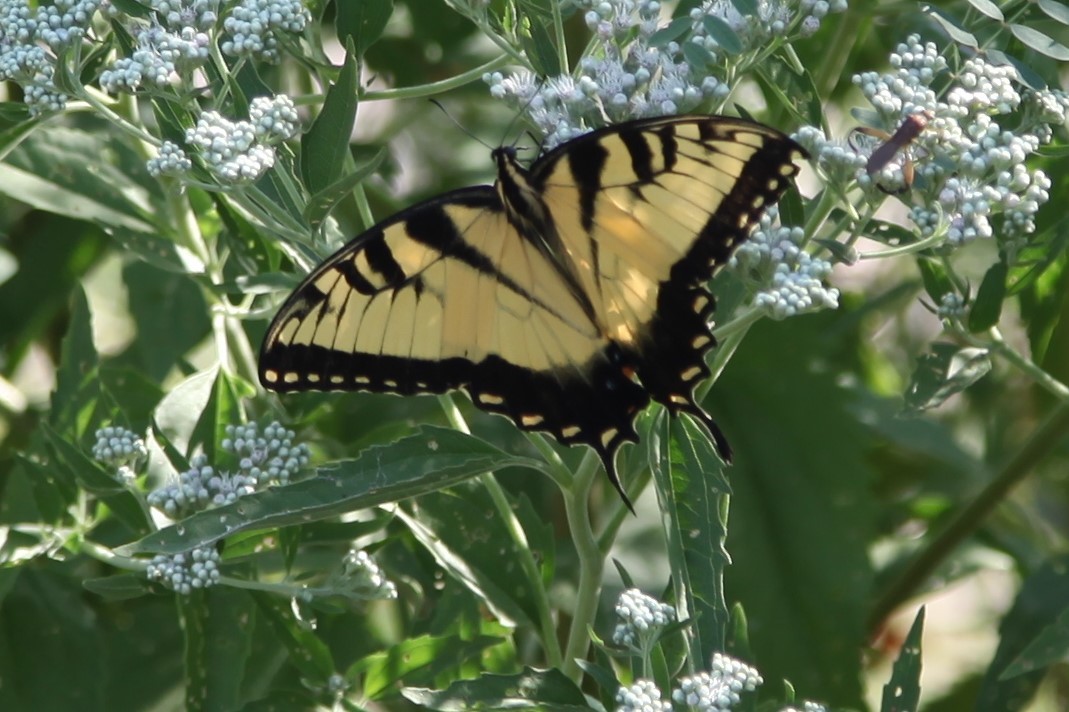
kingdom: Animalia
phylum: Arthropoda
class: Insecta
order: Lepidoptera
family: Papilionidae
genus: Papilio
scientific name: Papilio glaucus
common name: Tiger swallowtail
